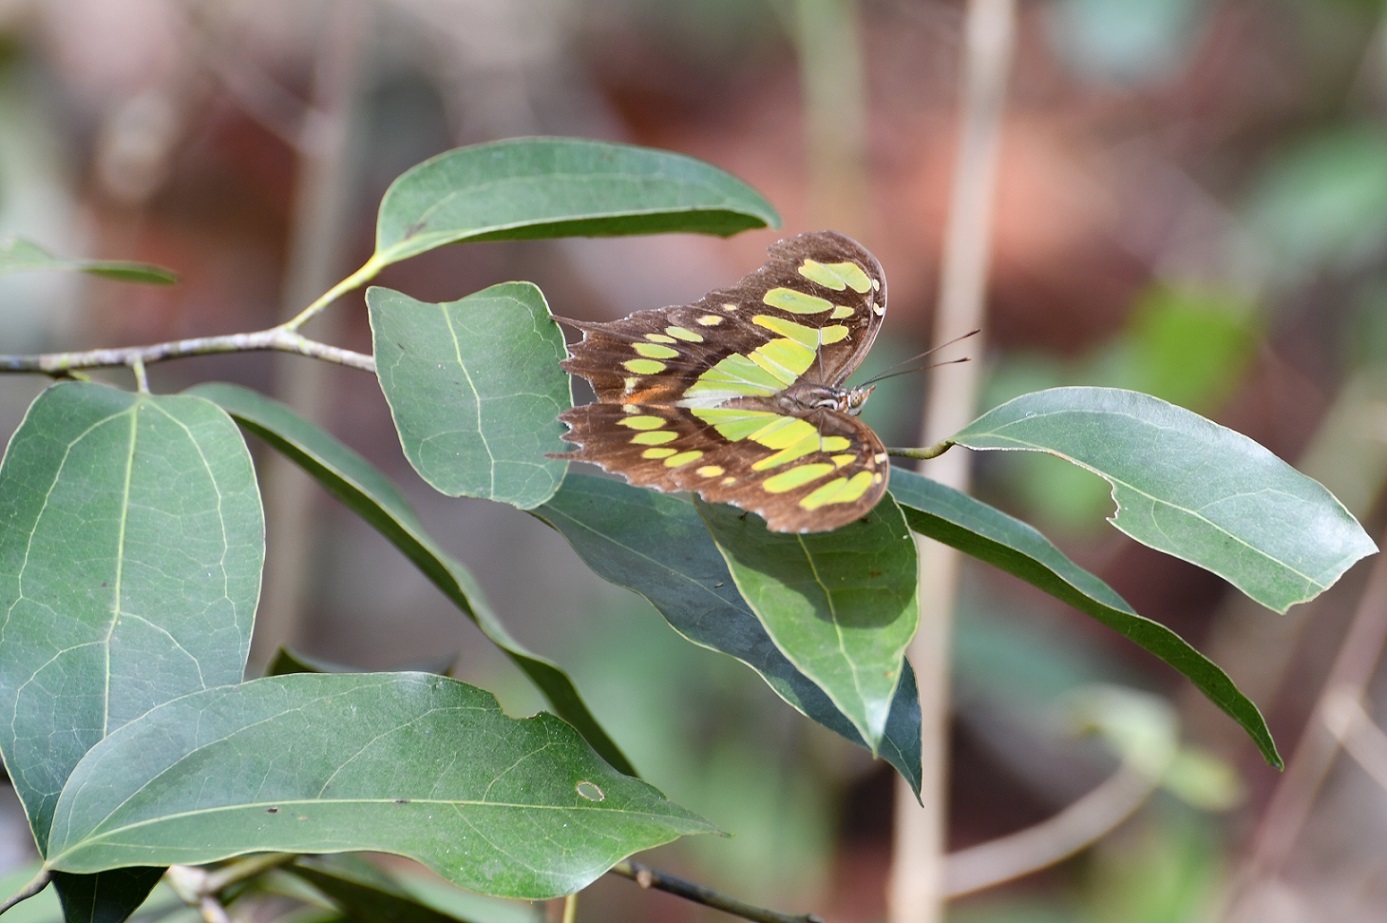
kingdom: Animalia
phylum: Arthropoda
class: Insecta
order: Lepidoptera
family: Nymphalidae
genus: Siproeta
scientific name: Siproeta stelenes
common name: Malachite
